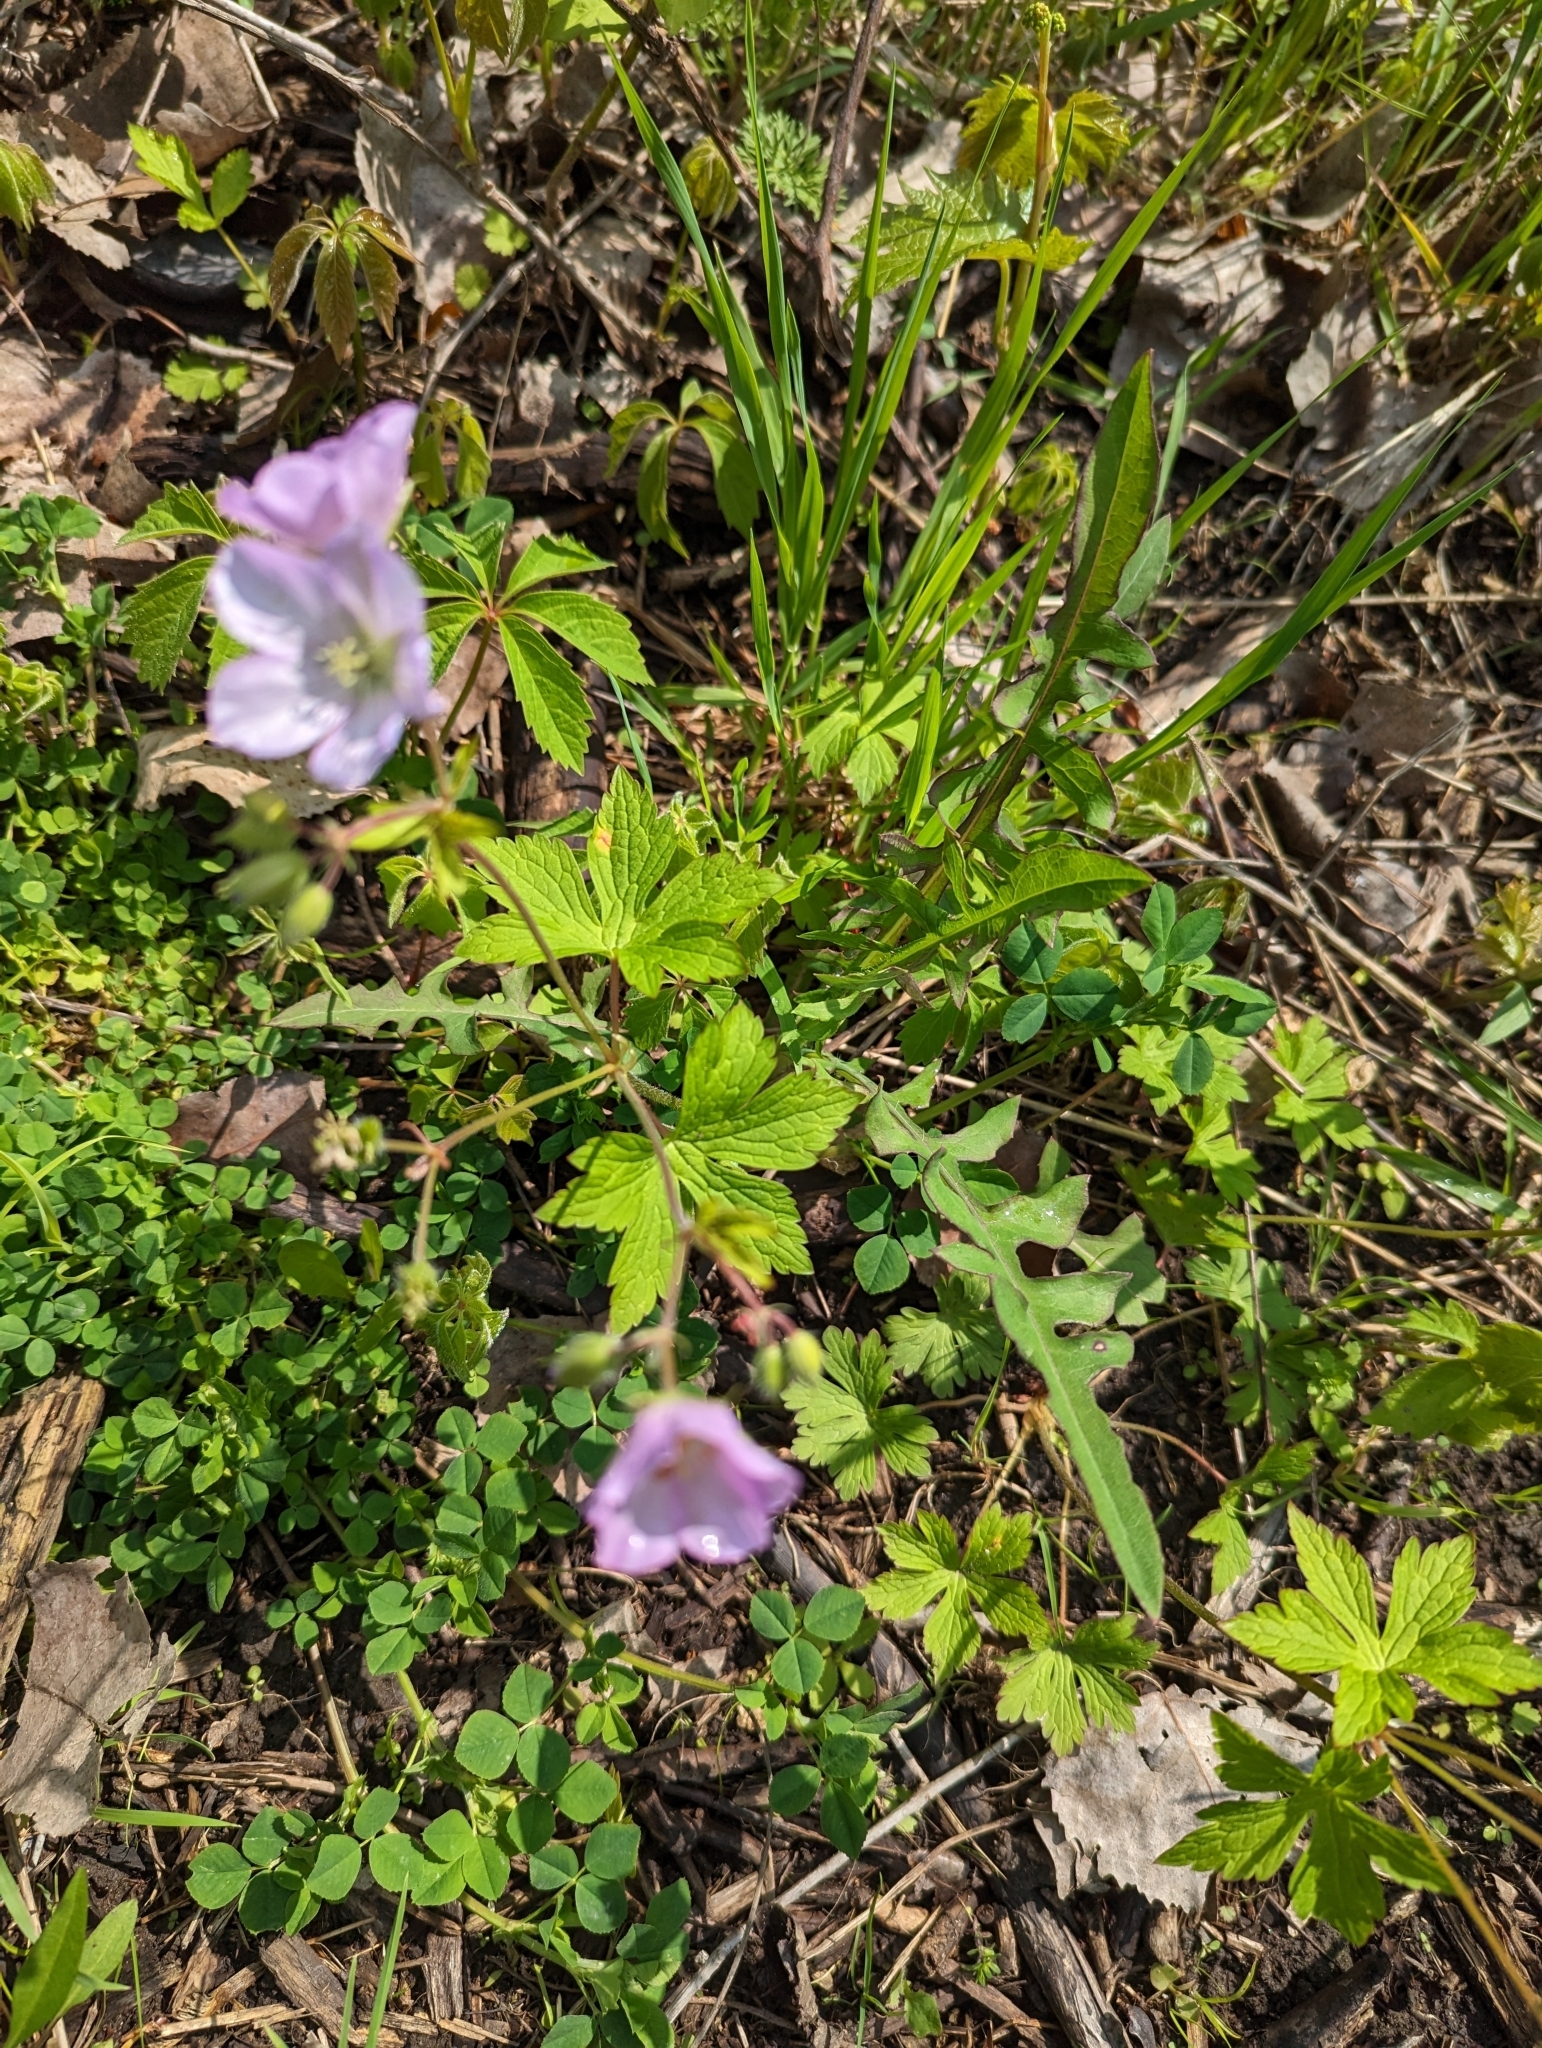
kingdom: Plantae
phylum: Tracheophyta
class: Magnoliopsida
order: Geraniales
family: Geraniaceae
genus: Geranium
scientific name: Geranium maculatum
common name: Spotted geranium
